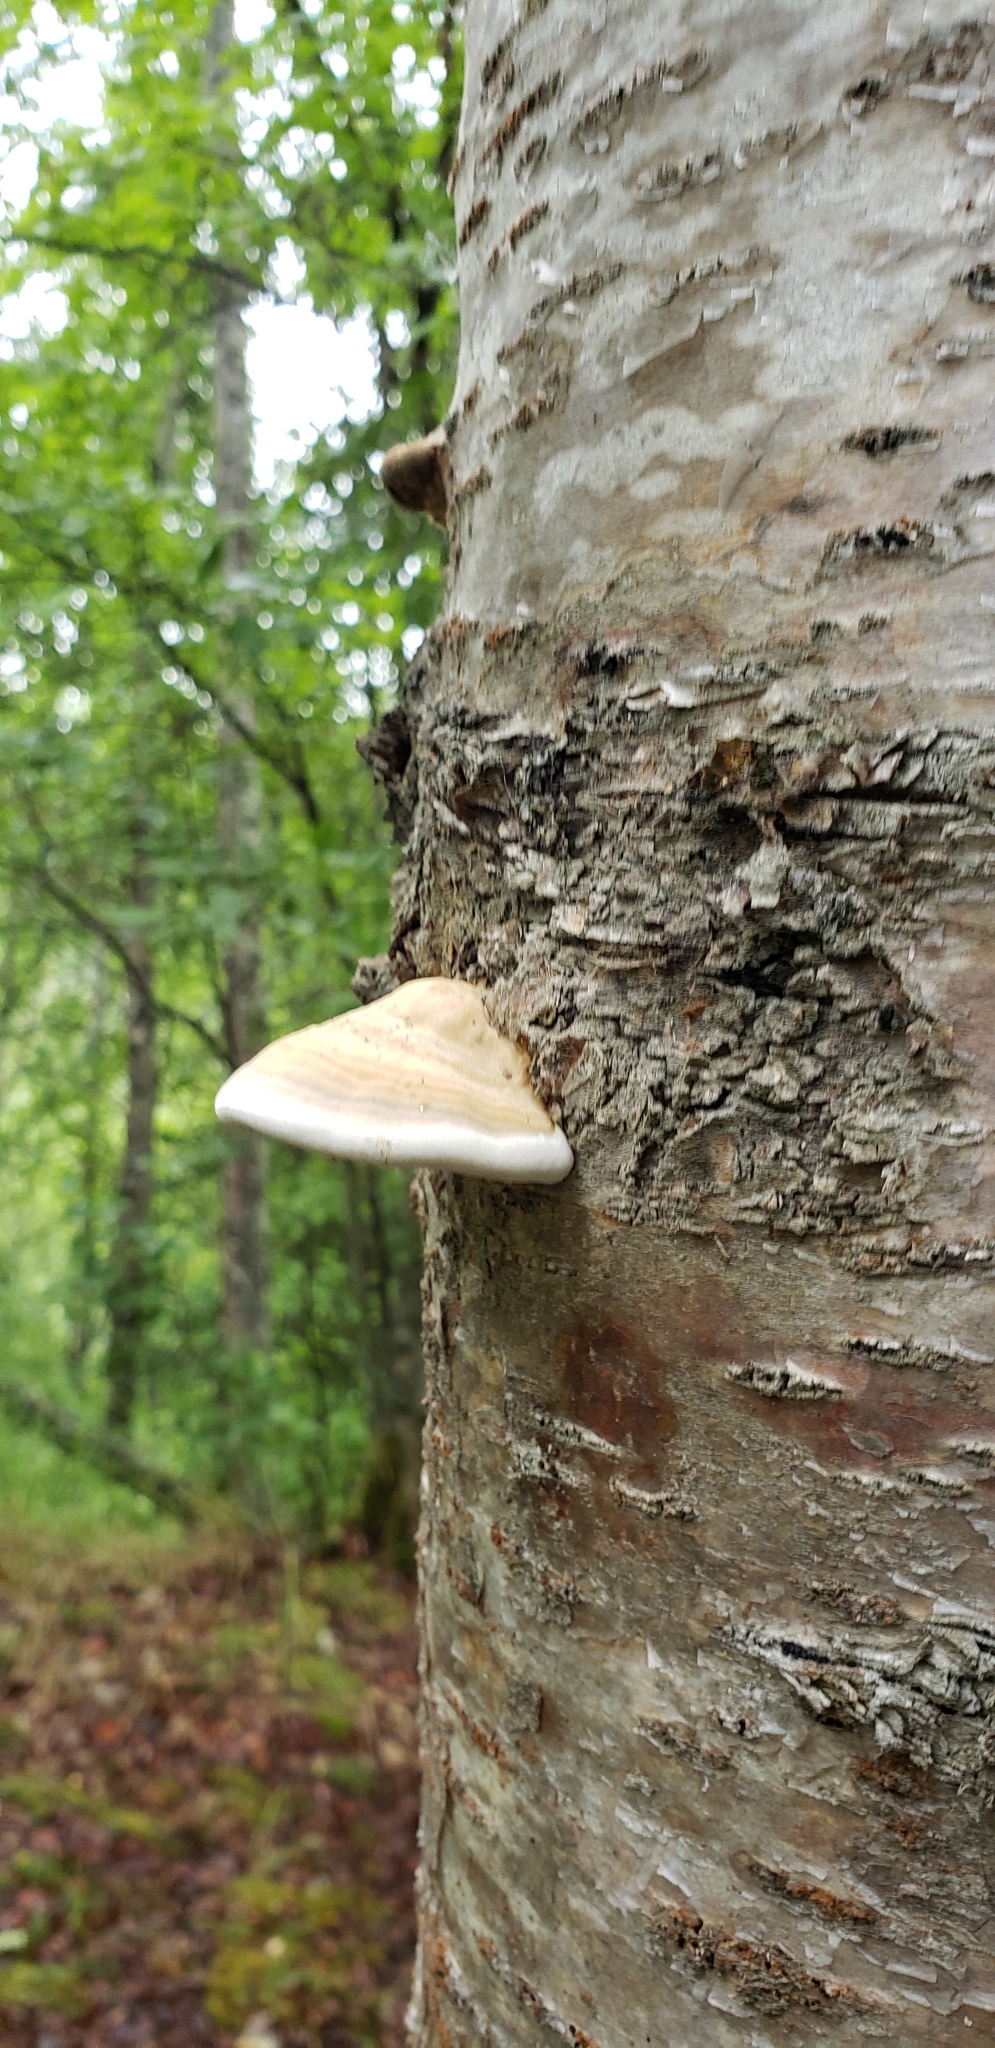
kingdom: Fungi
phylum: Basidiomycota
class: Agaricomycetes
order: Polyporales
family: Polyporaceae
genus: Fomes
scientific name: Fomes fomentarius
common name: Hoof fungus
